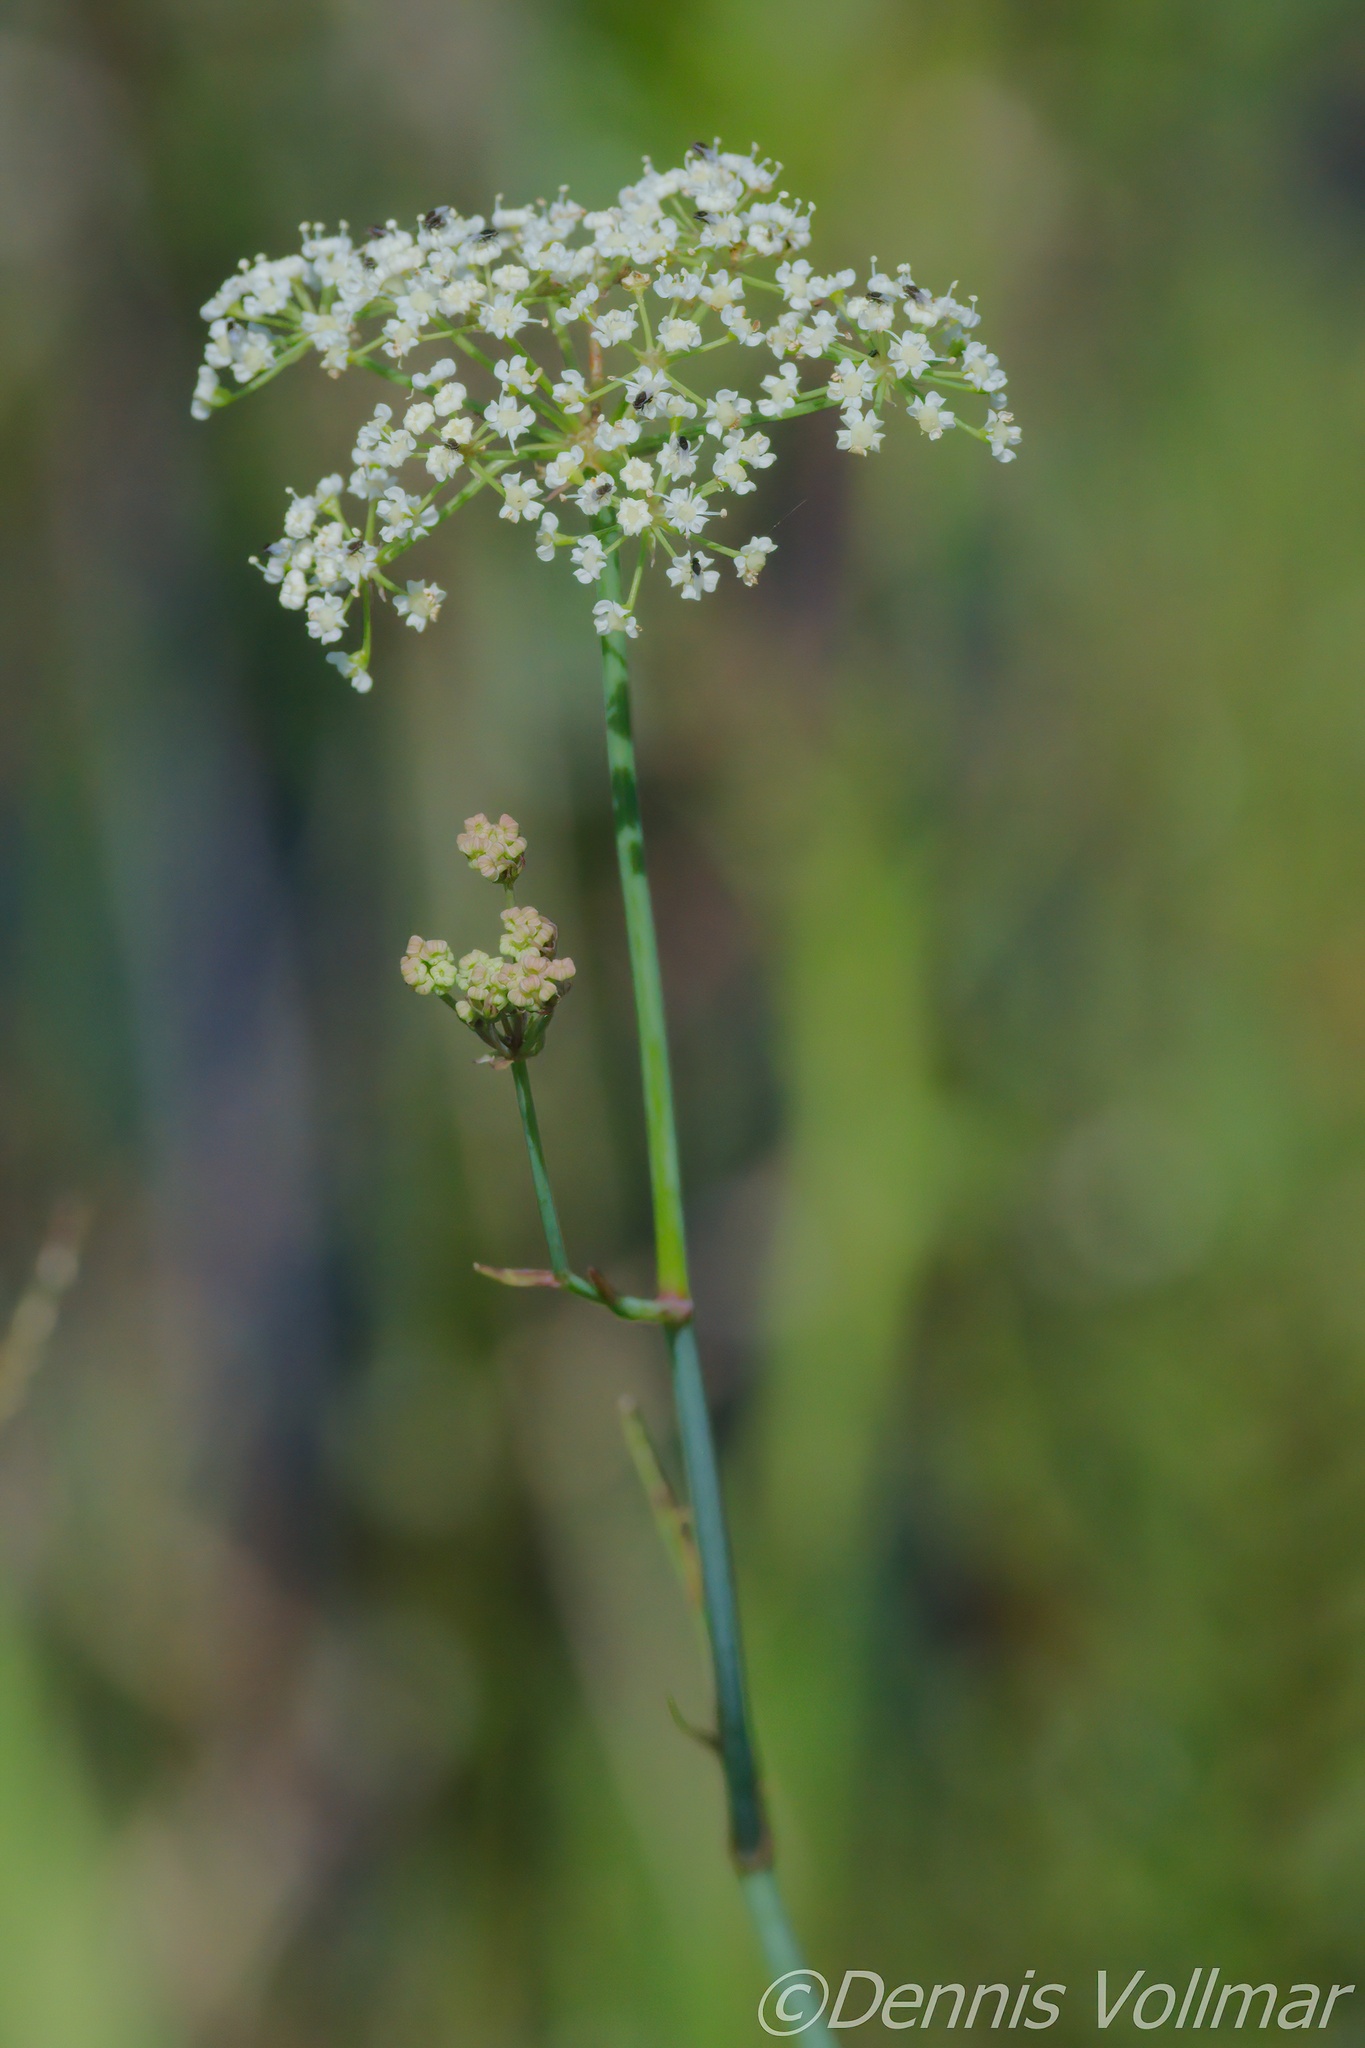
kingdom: Plantae
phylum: Tracheophyta
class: Magnoliopsida
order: Apiales
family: Apiaceae
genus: Tiedemannia
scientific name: Tiedemannia filiformis
